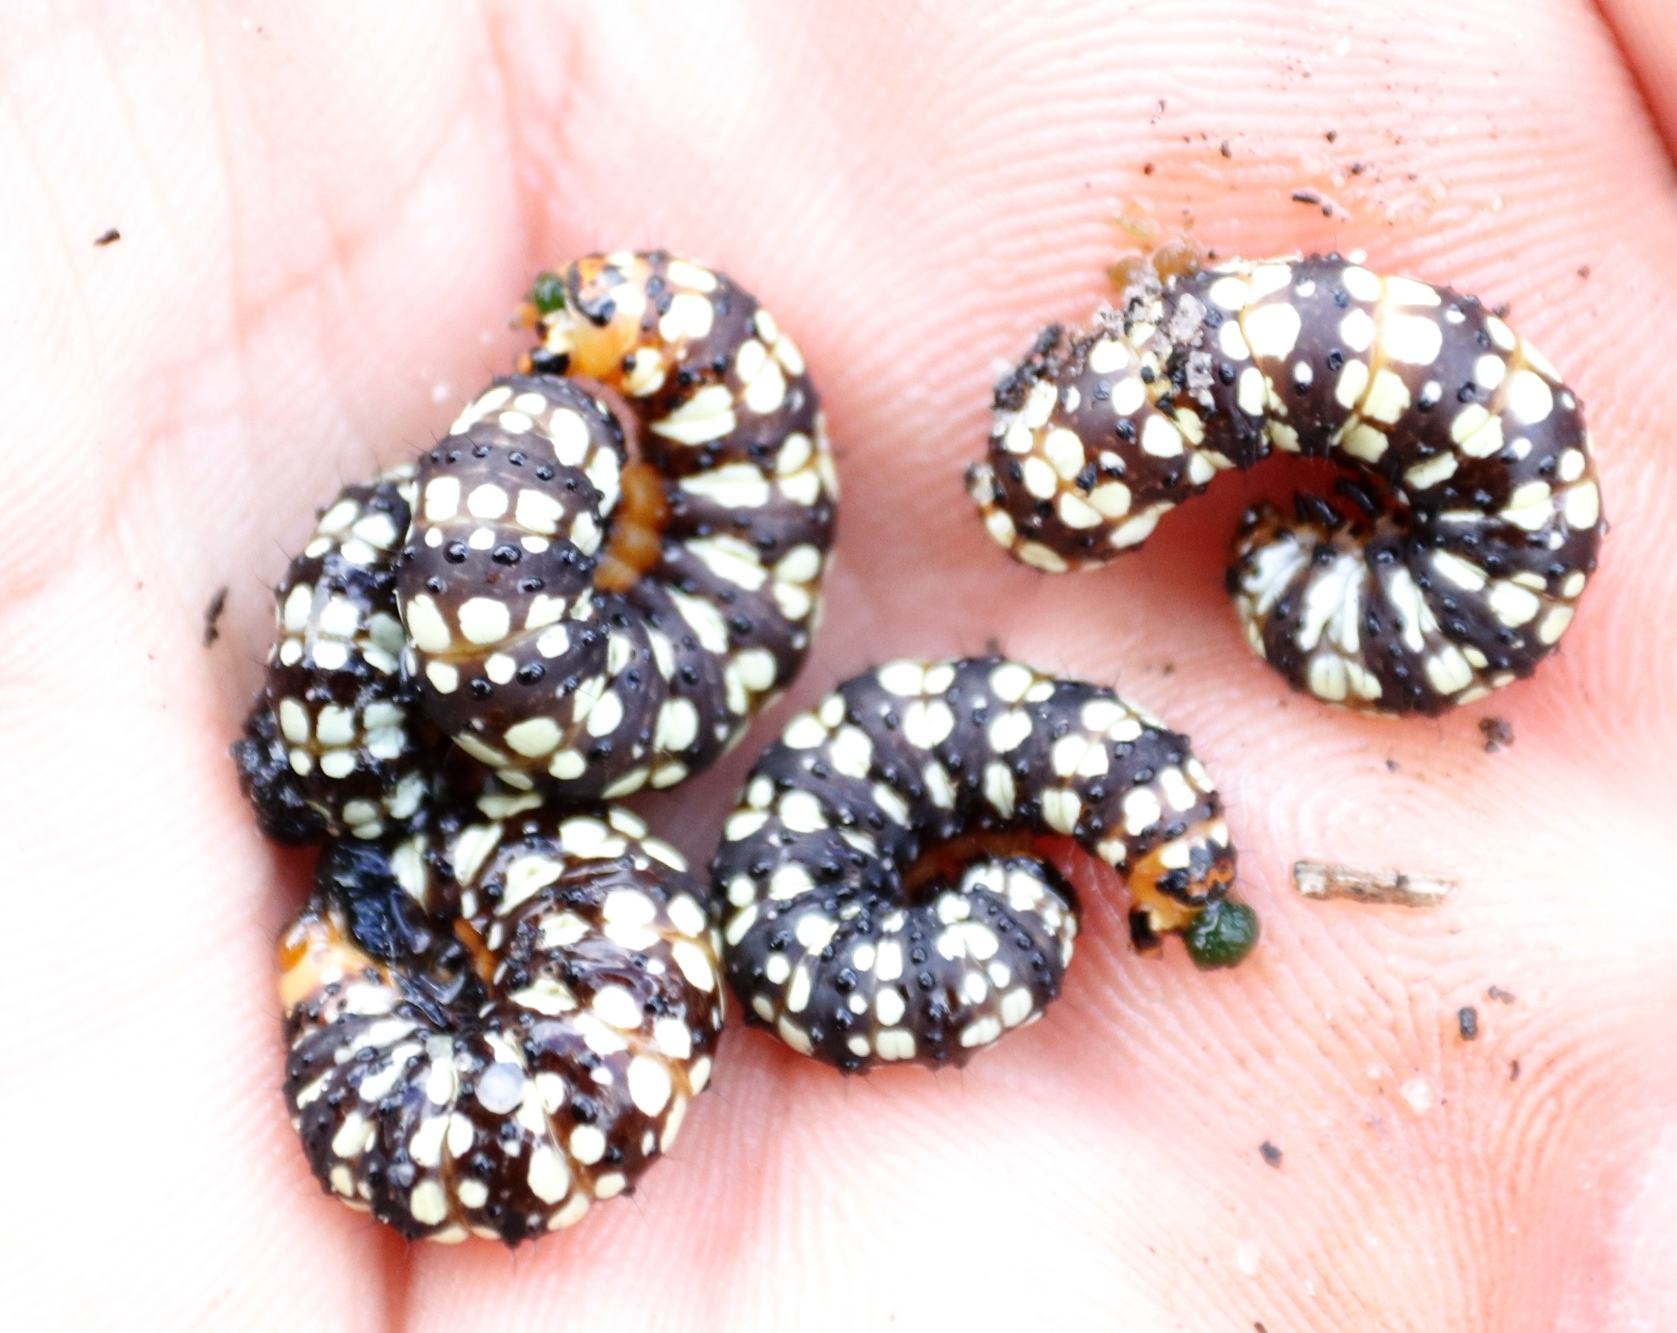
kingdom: Animalia
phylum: Arthropoda
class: Insecta
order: Lepidoptera
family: Noctuidae
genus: Brithys
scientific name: Brithys crini
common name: Kew arches
